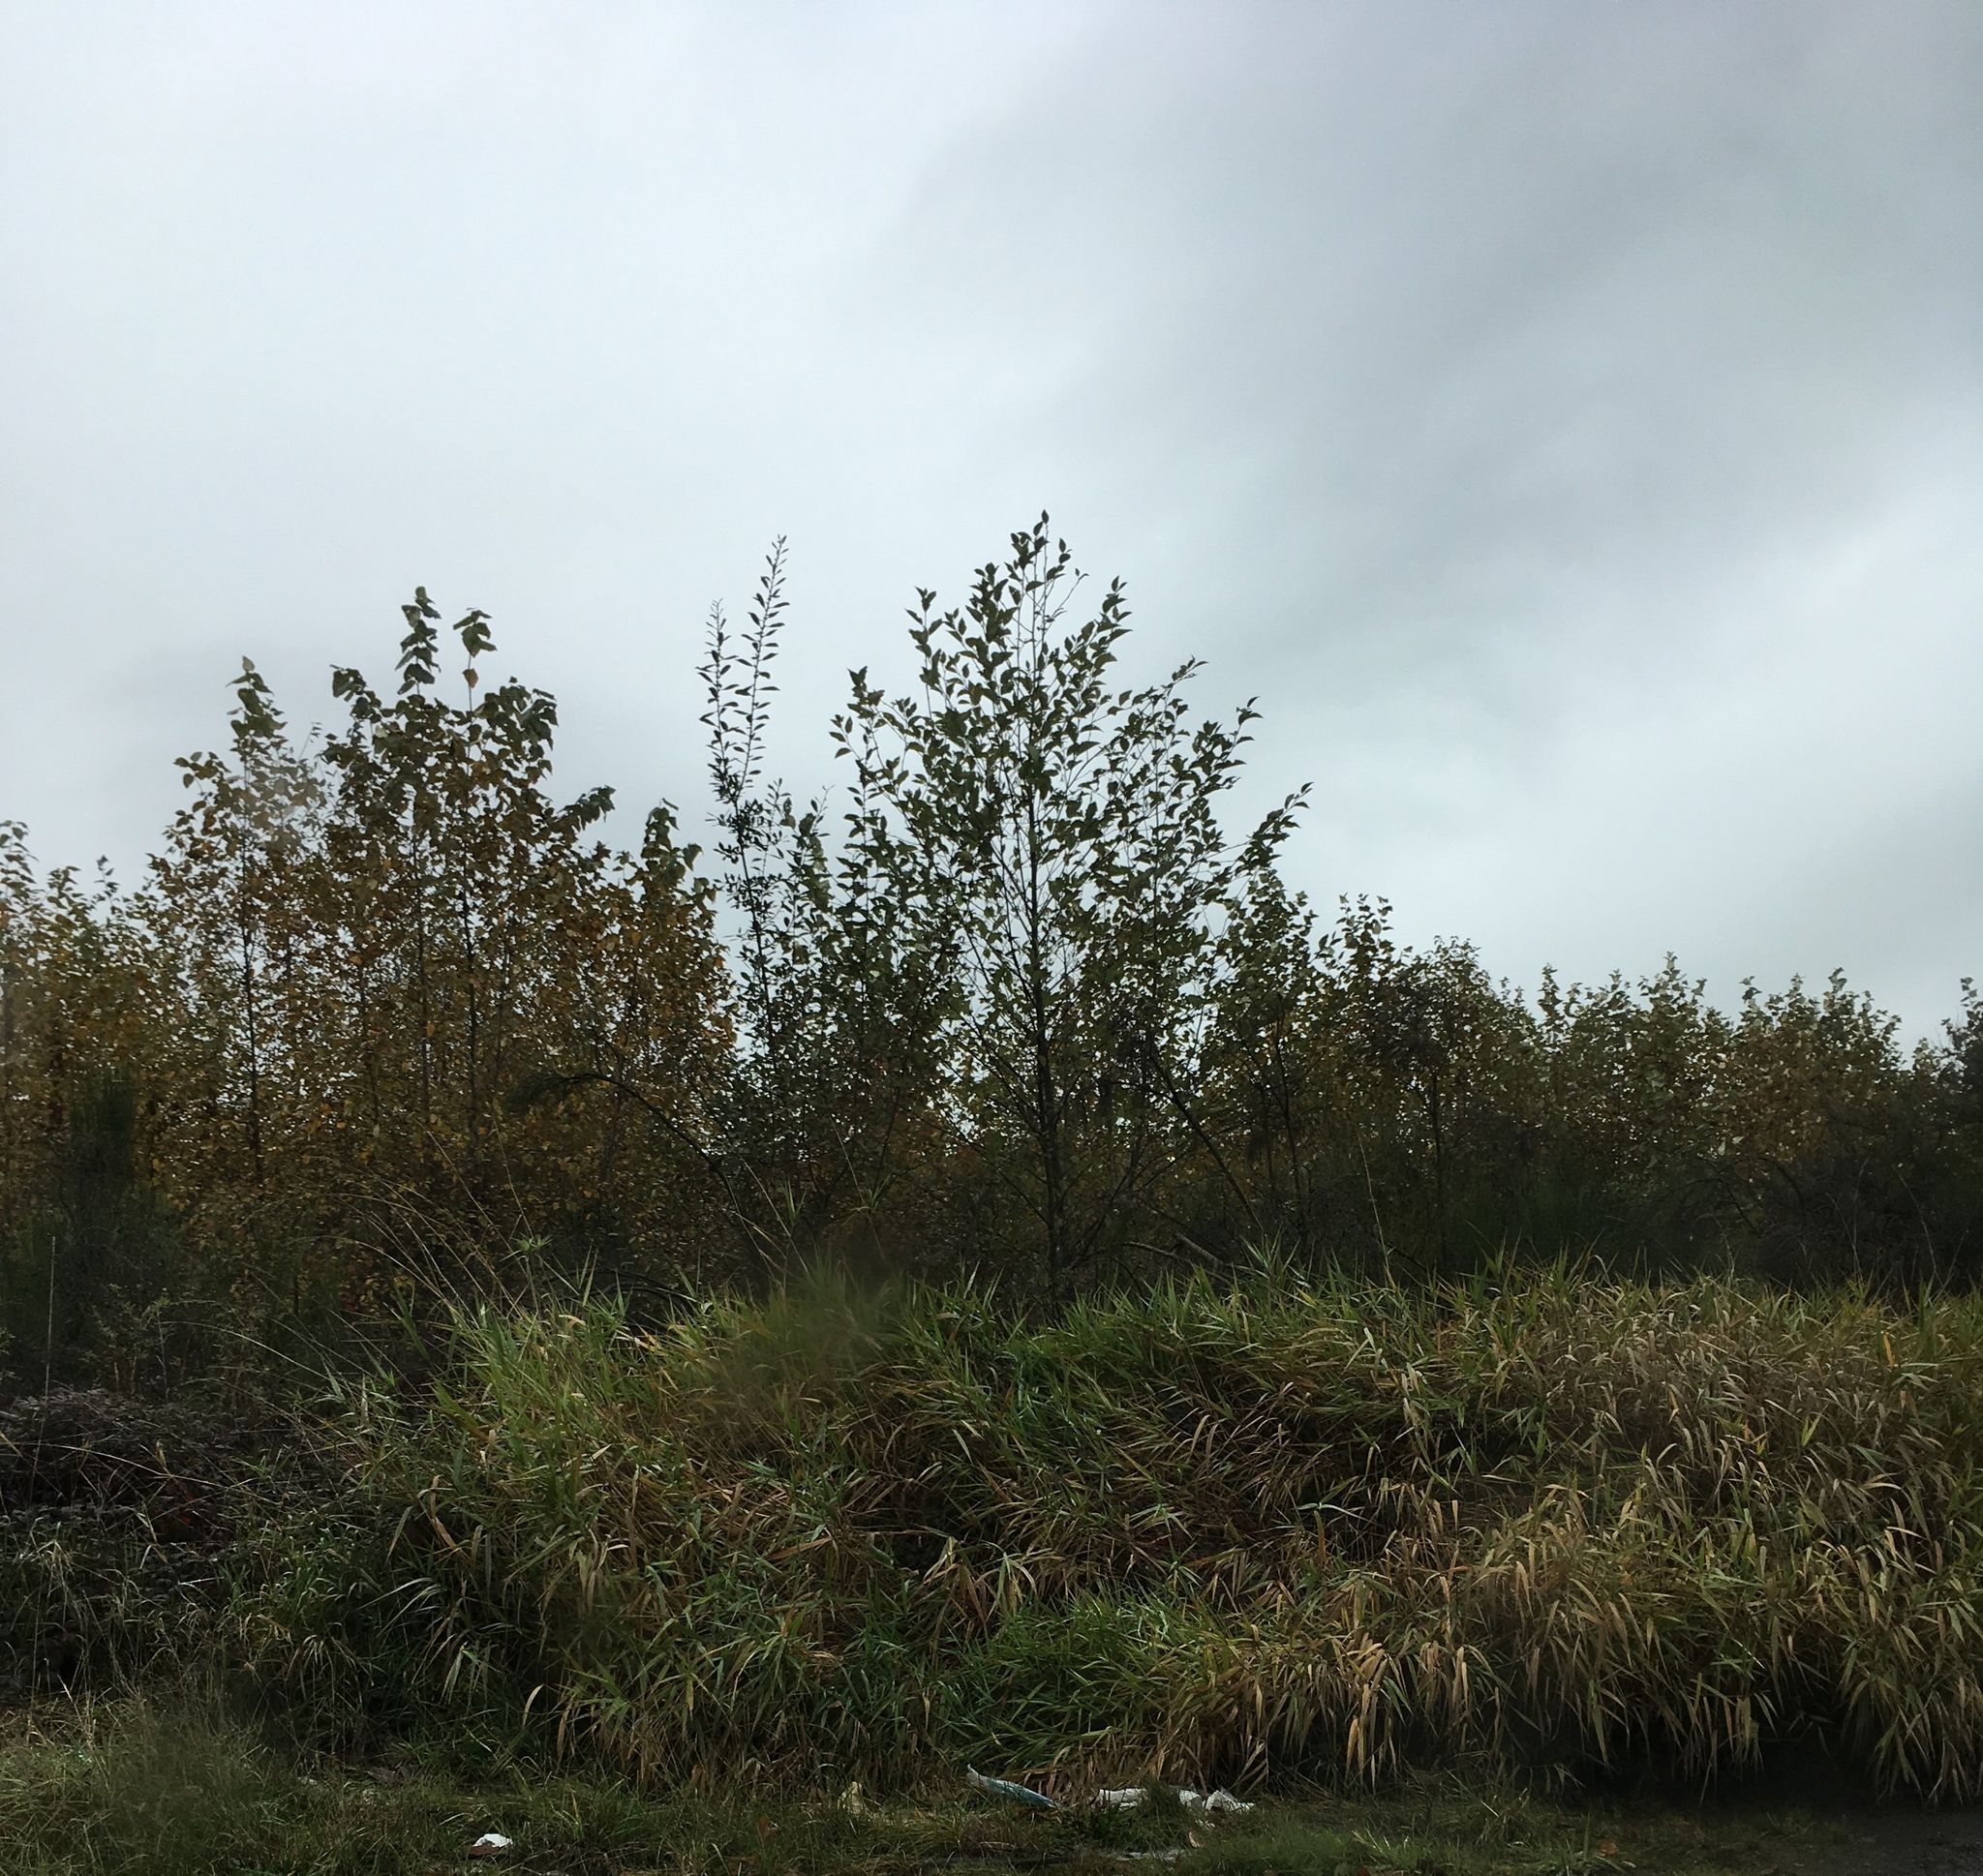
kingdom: Plantae
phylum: Tracheophyta
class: Liliopsida
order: Poales
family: Poaceae
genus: Phalaris
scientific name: Phalaris arundinacea
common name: Reed canary-grass
